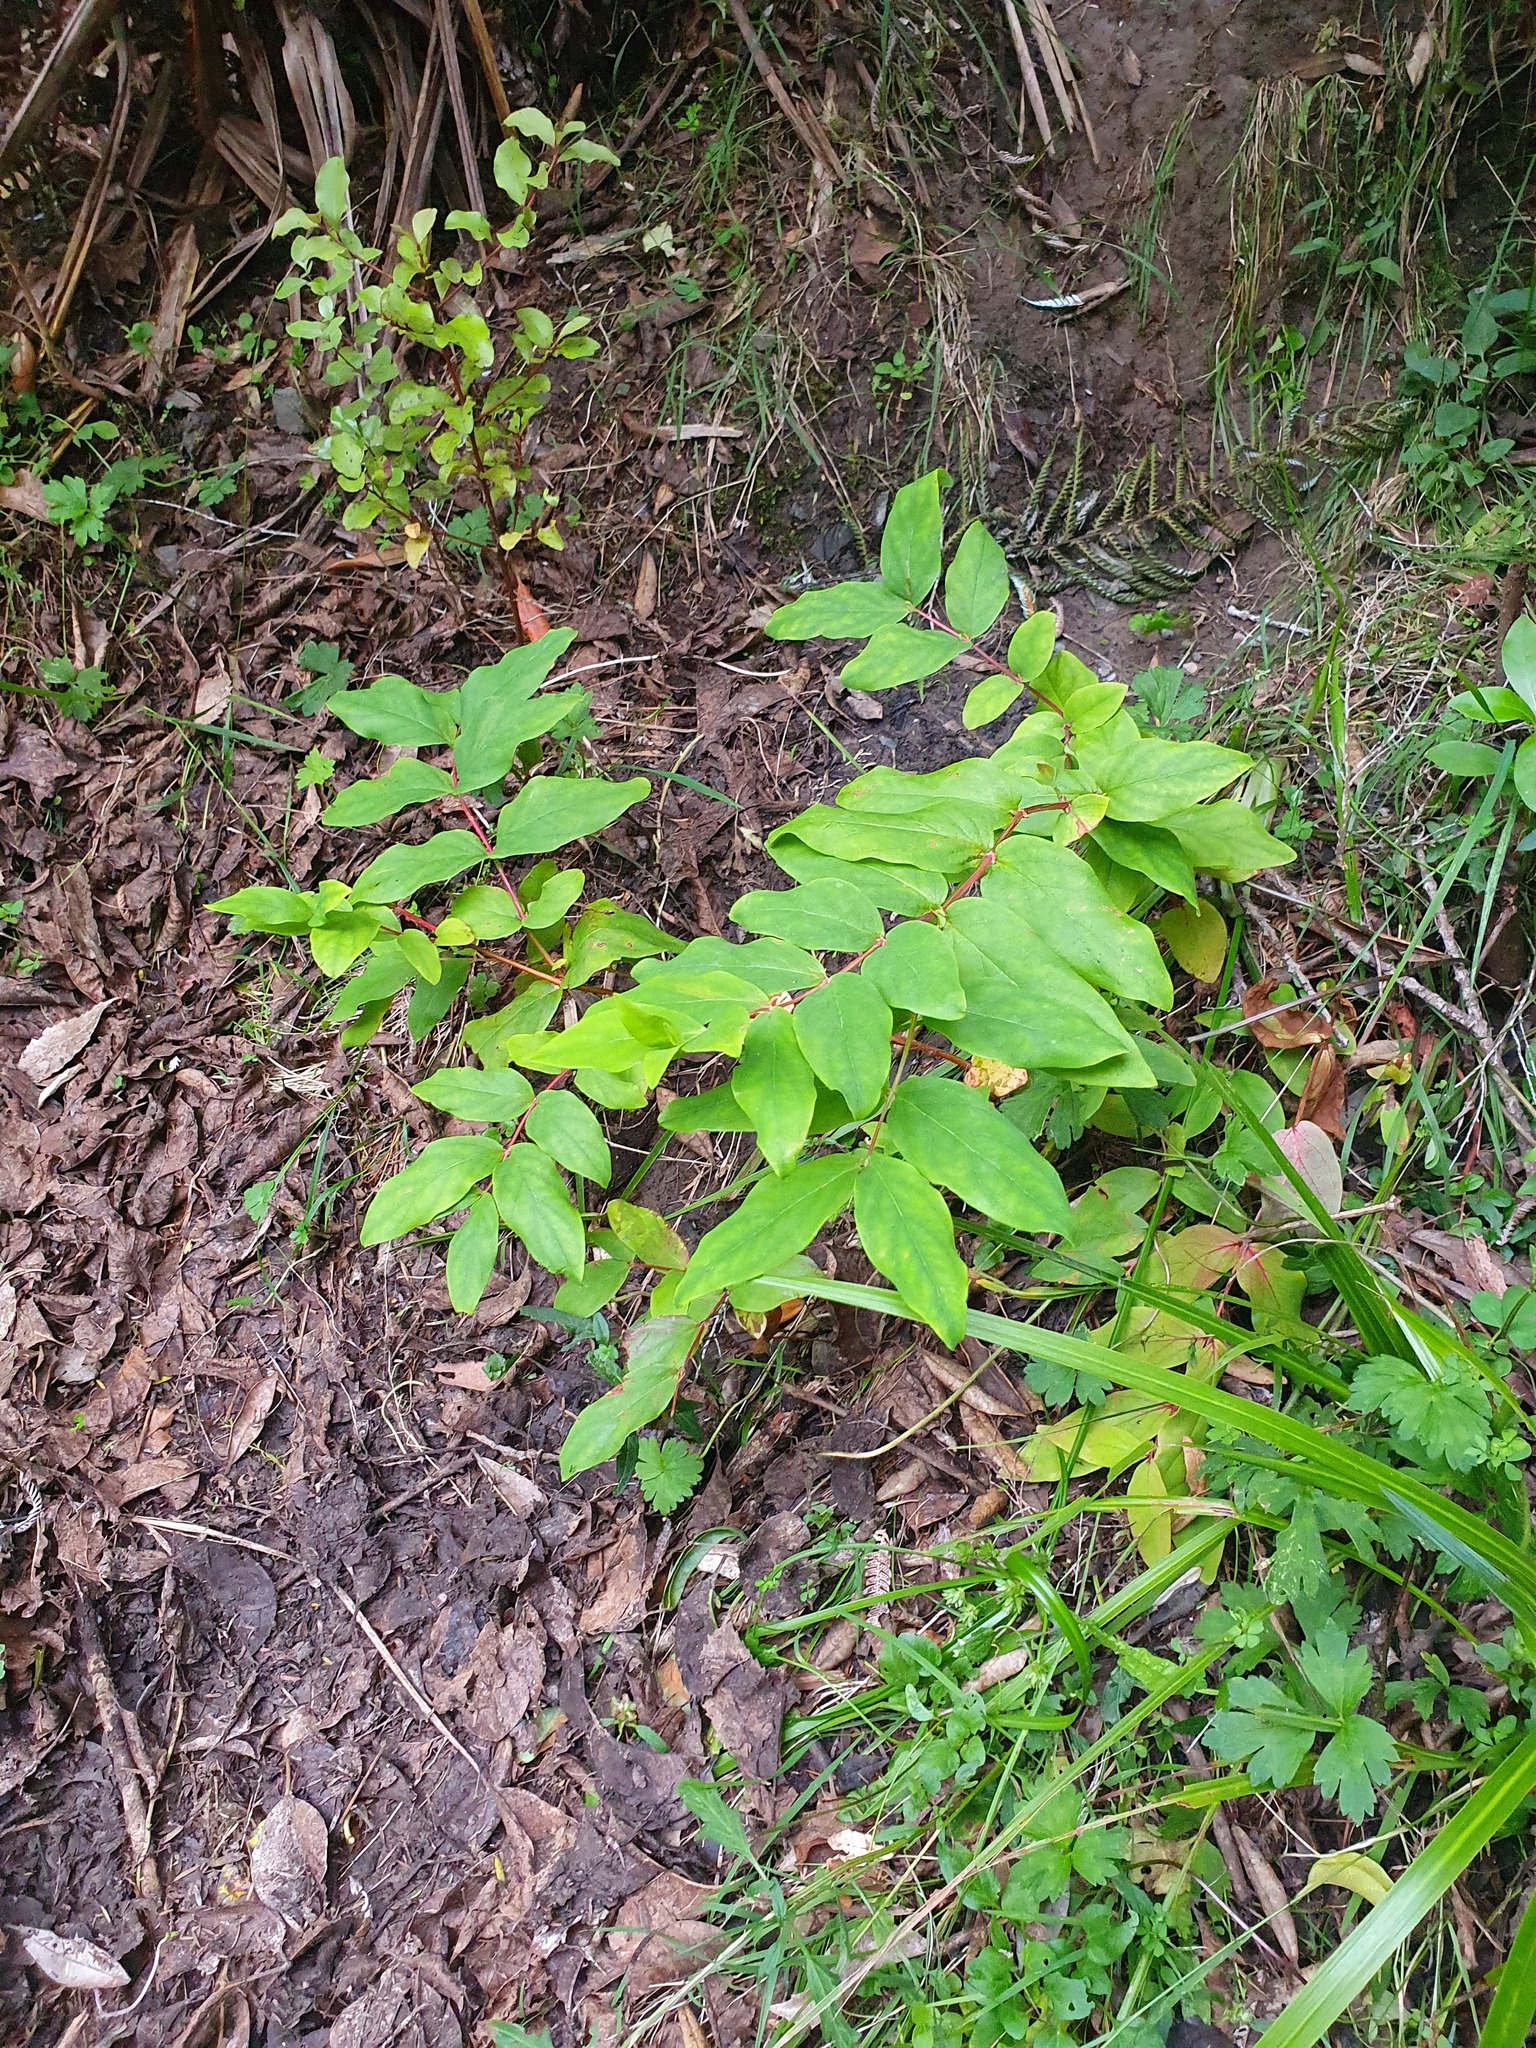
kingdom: Plantae
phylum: Tracheophyta
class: Magnoliopsida
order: Malpighiales
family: Hypericaceae
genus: Hypericum
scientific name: Hypericum androsaemum
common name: Sweet-amber
